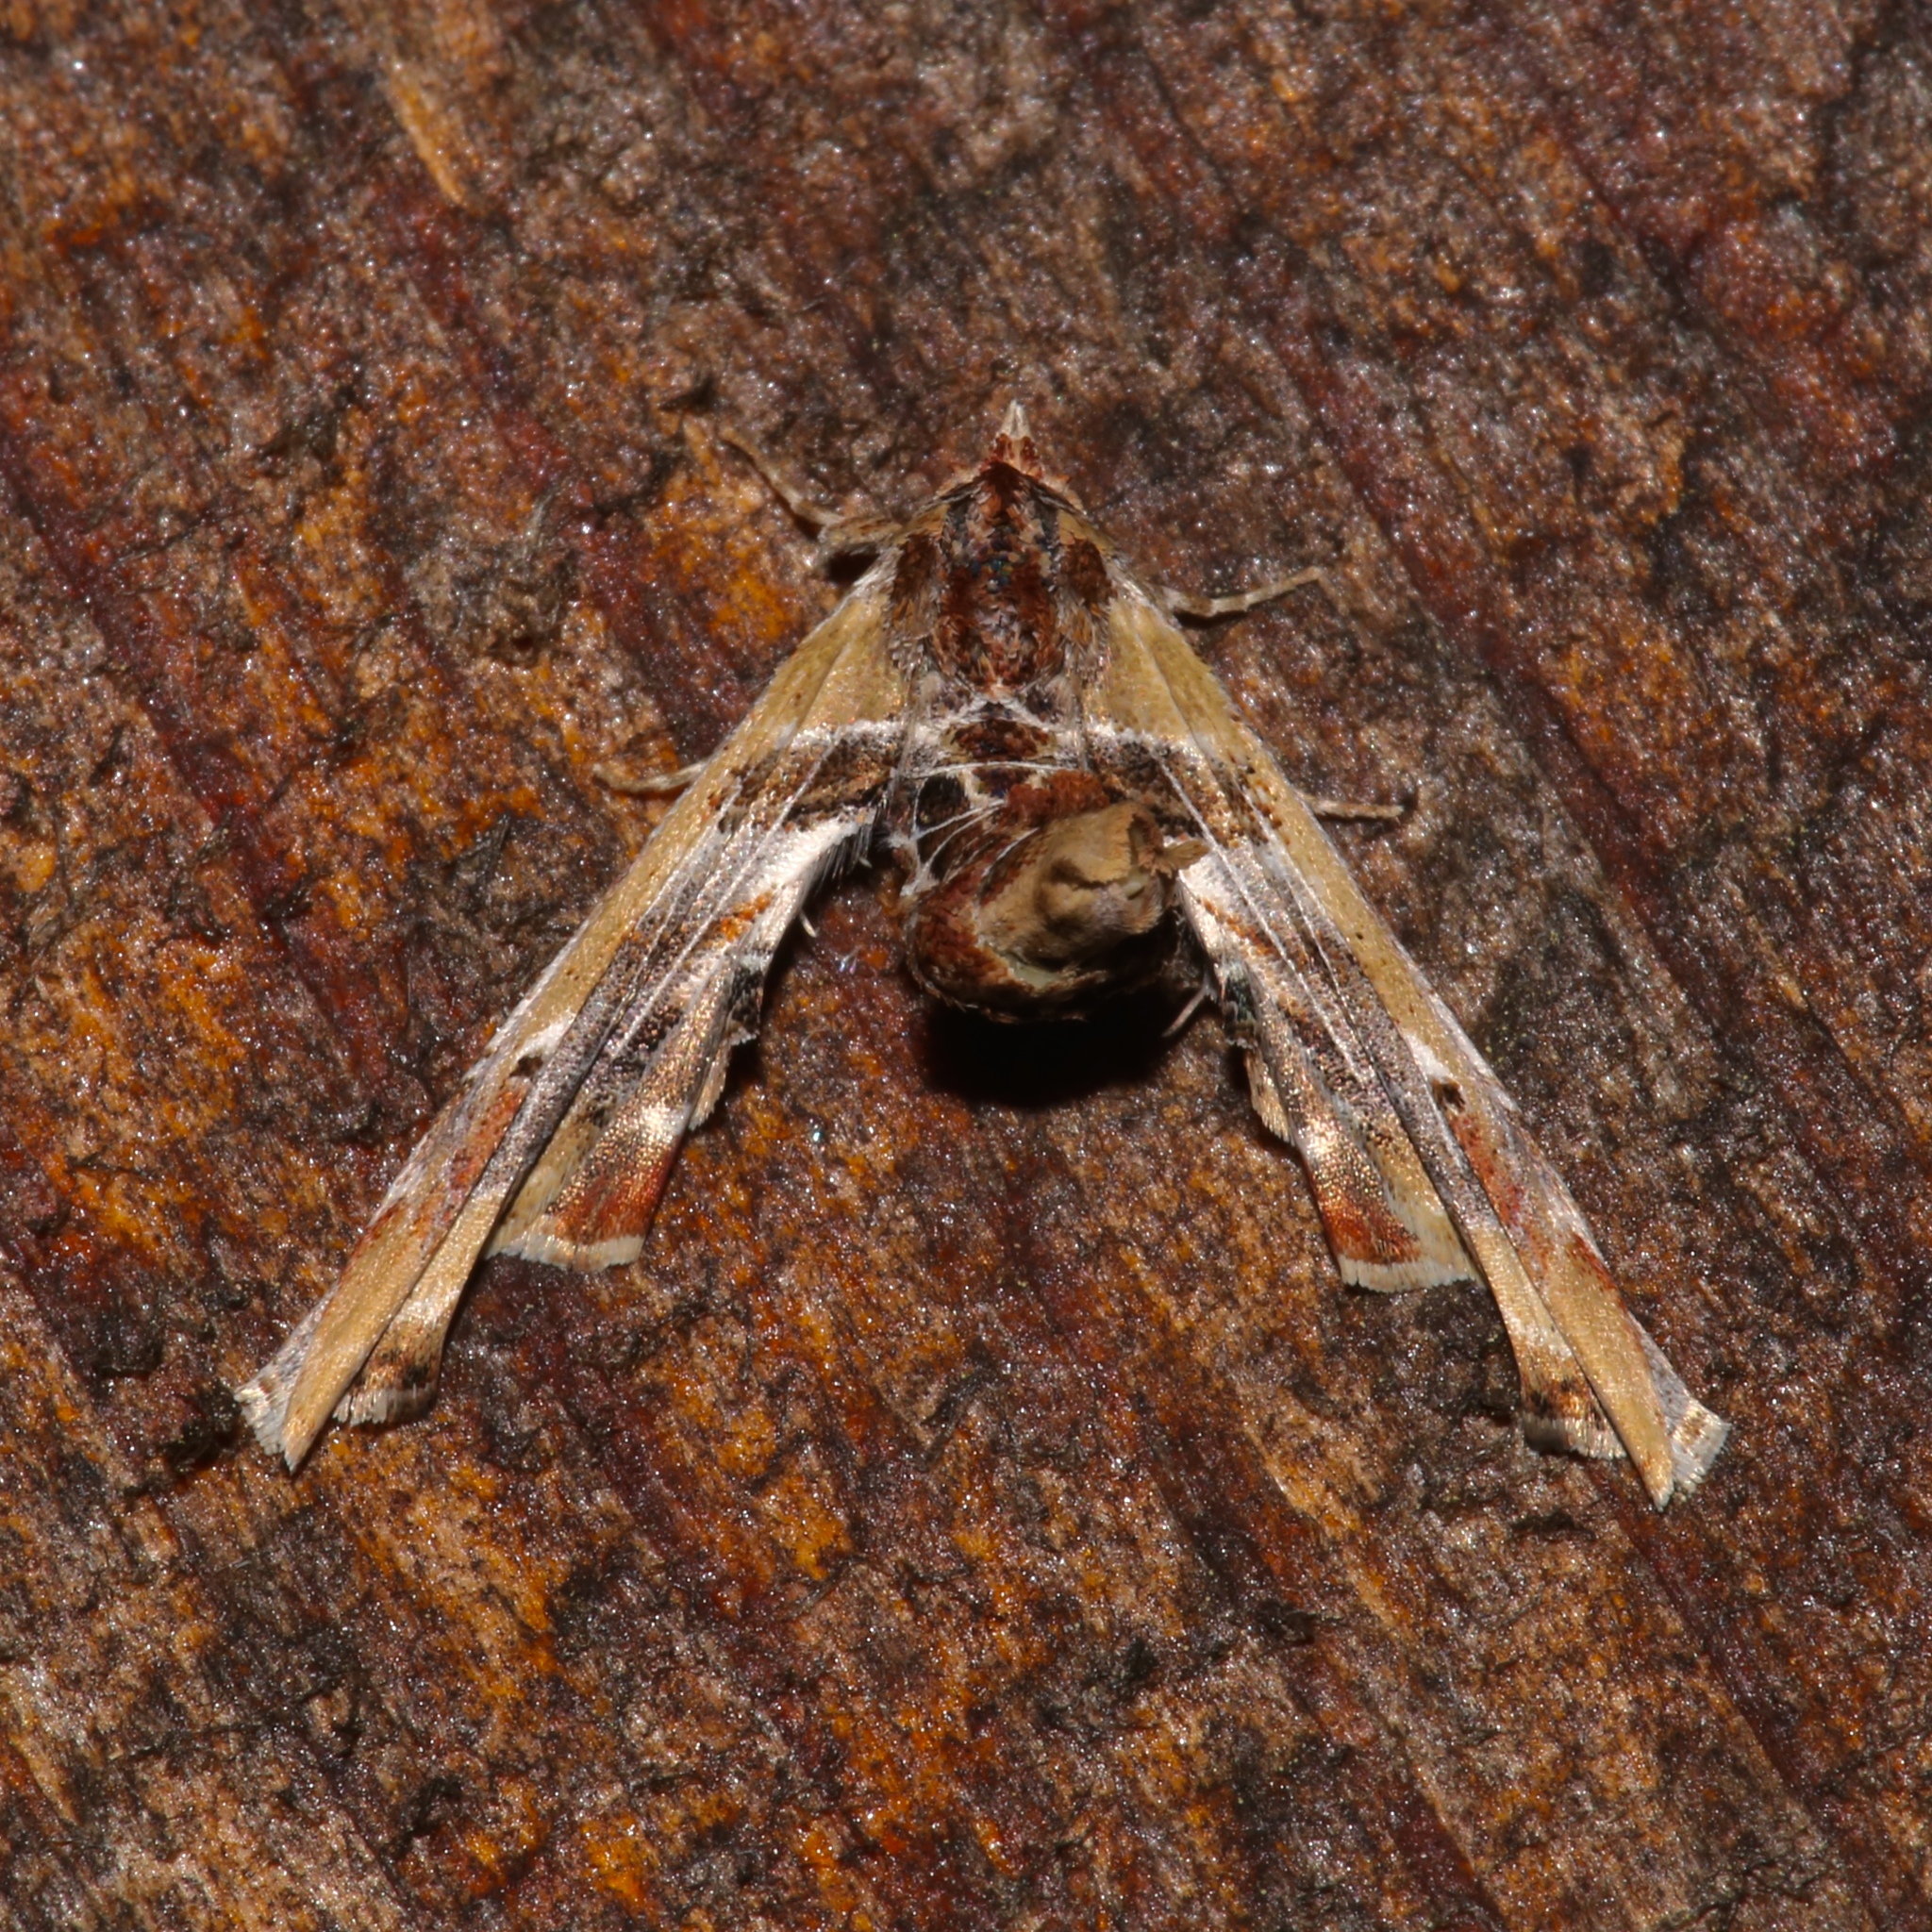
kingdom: Animalia
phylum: Arthropoda
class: Insecta
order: Lepidoptera
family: Euteliidae
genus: Marathyssa
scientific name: Marathyssa basalis
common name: Light marathyssa moth
